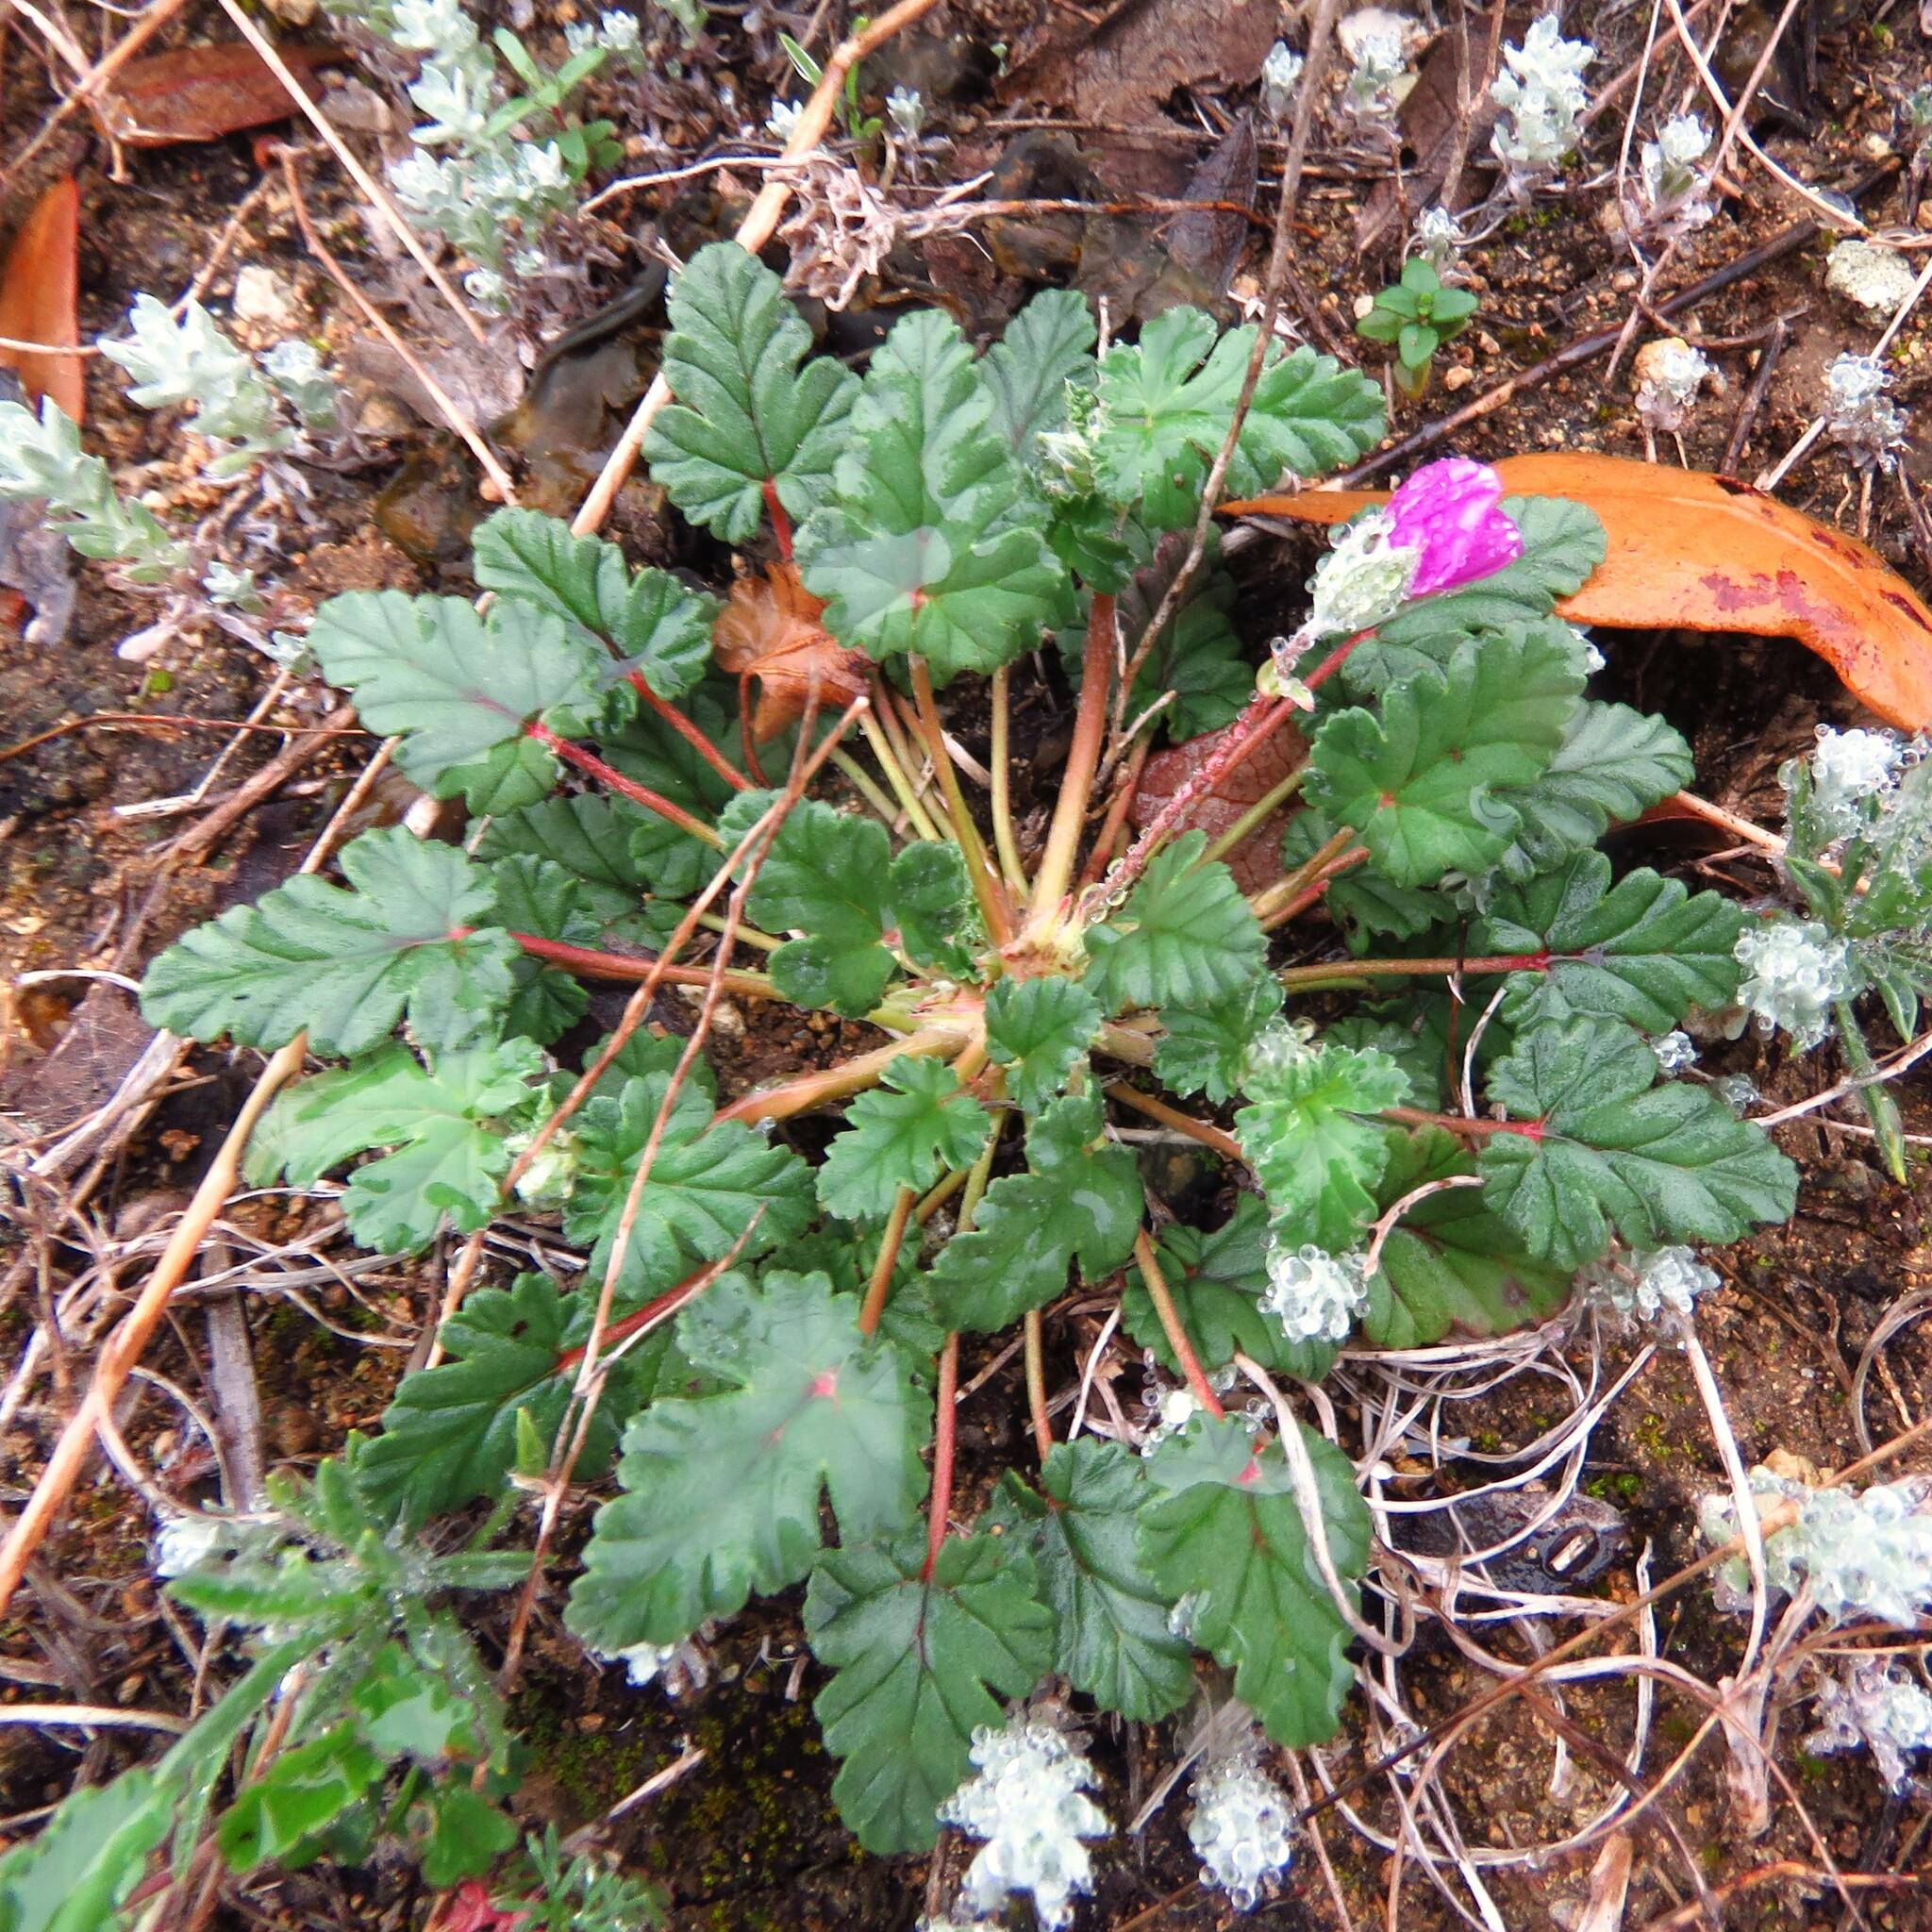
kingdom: Plantae
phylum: Tracheophyta
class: Magnoliopsida
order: Geraniales
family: Geraniaceae
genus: Erodium
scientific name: Erodium texanum
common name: Texas stork's-bill
